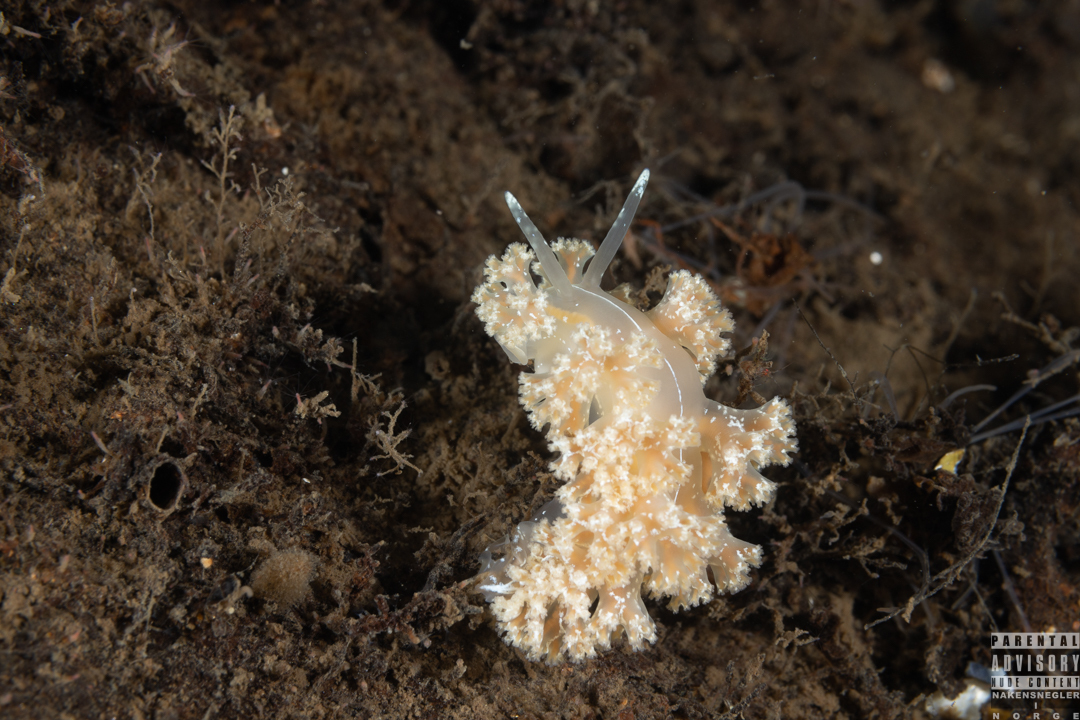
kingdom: Animalia
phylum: Mollusca
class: Gastropoda
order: Nudibranchia
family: Heroidae
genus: Hero
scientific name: Hero formosa
